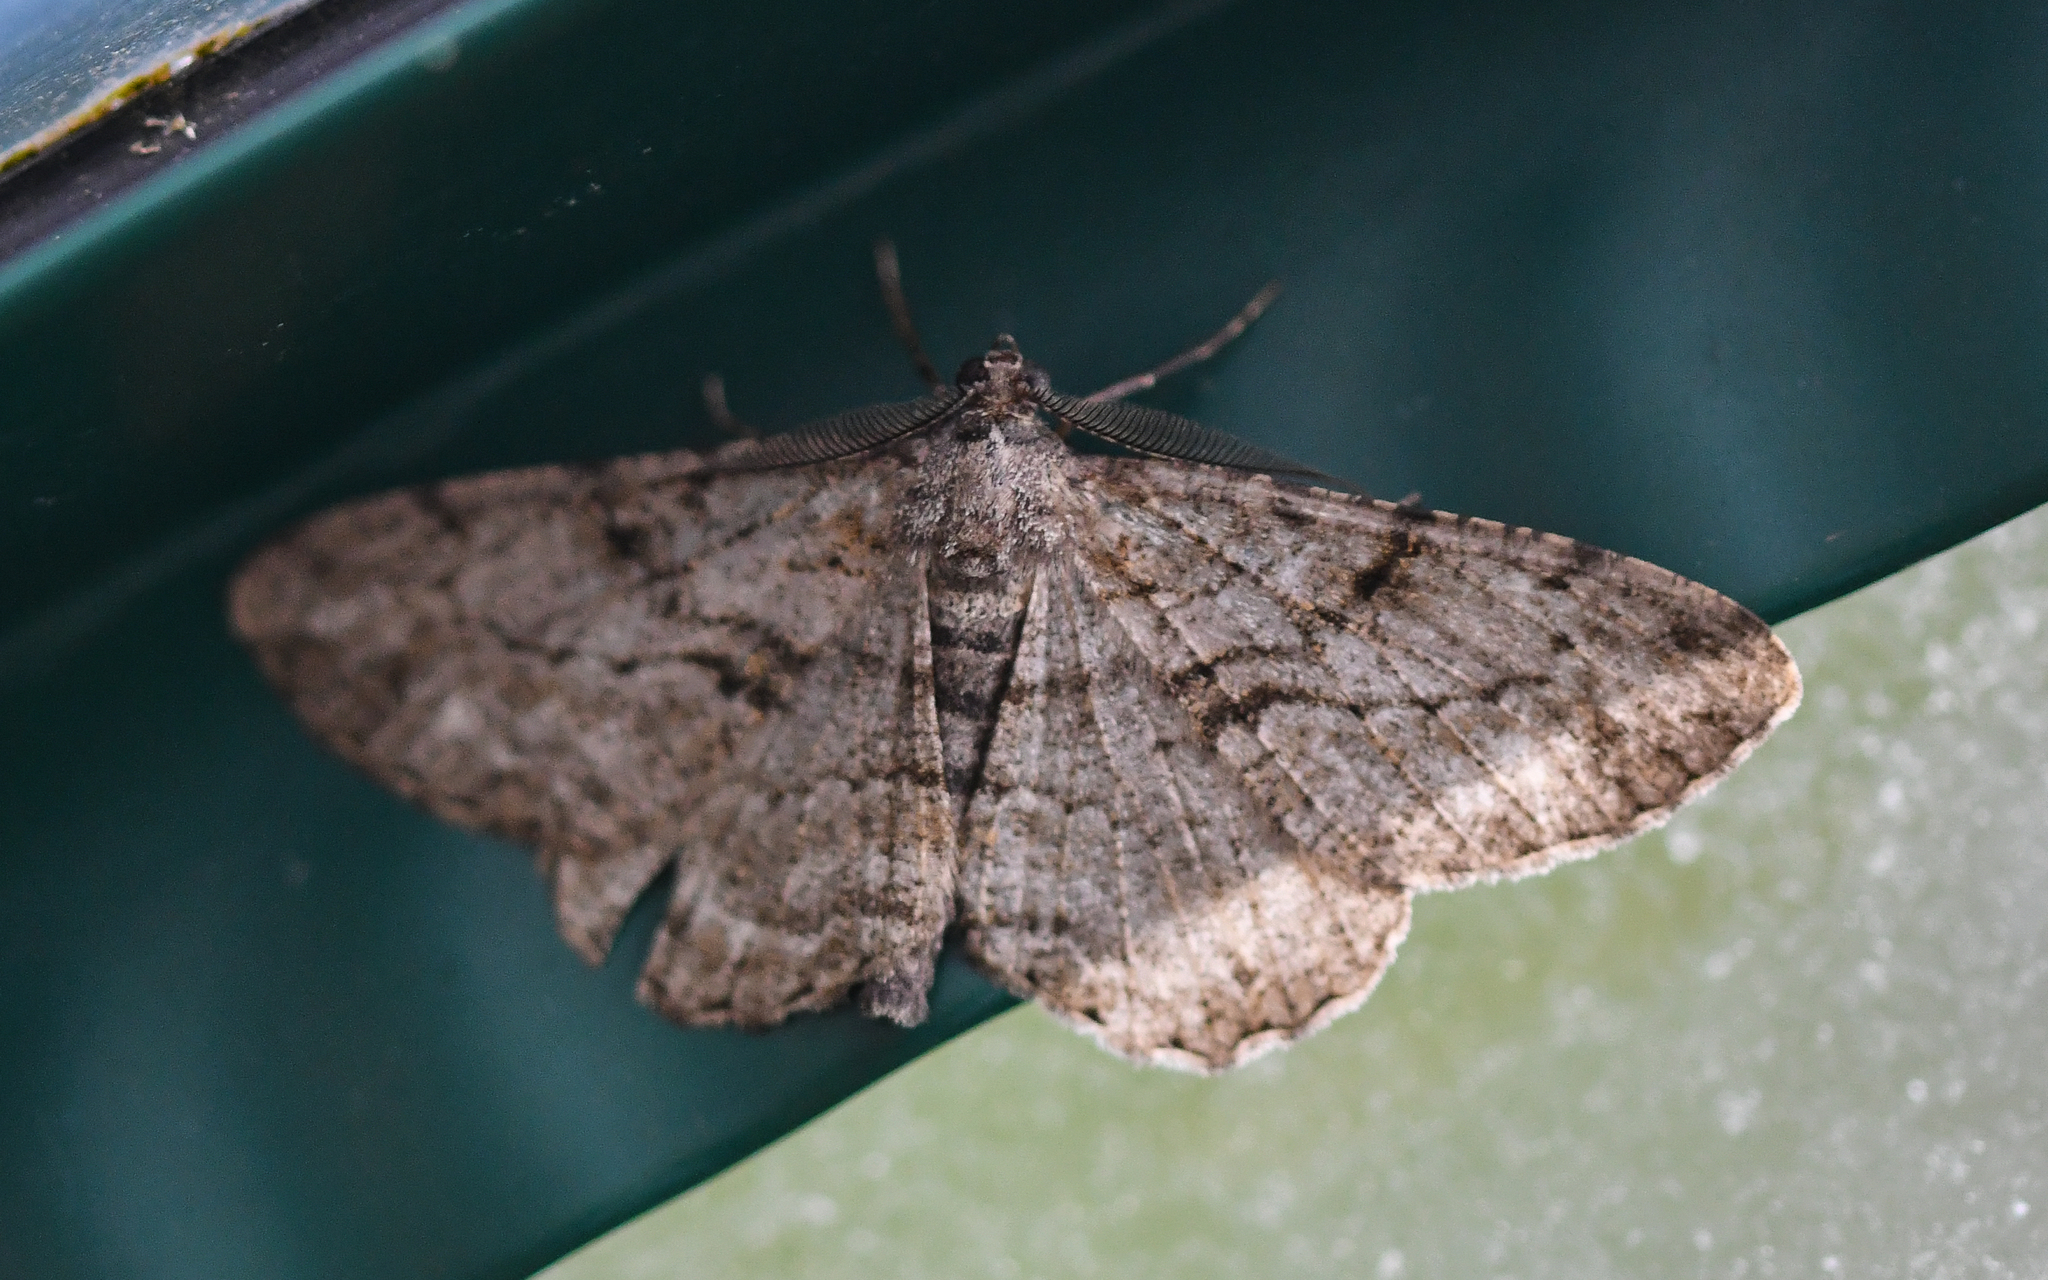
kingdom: Animalia
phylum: Arthropoda
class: Insecta
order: Lepidoptera
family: Geometridae
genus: Peribatodes
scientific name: Peribatodes rhomboidaria
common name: Willow beauty
